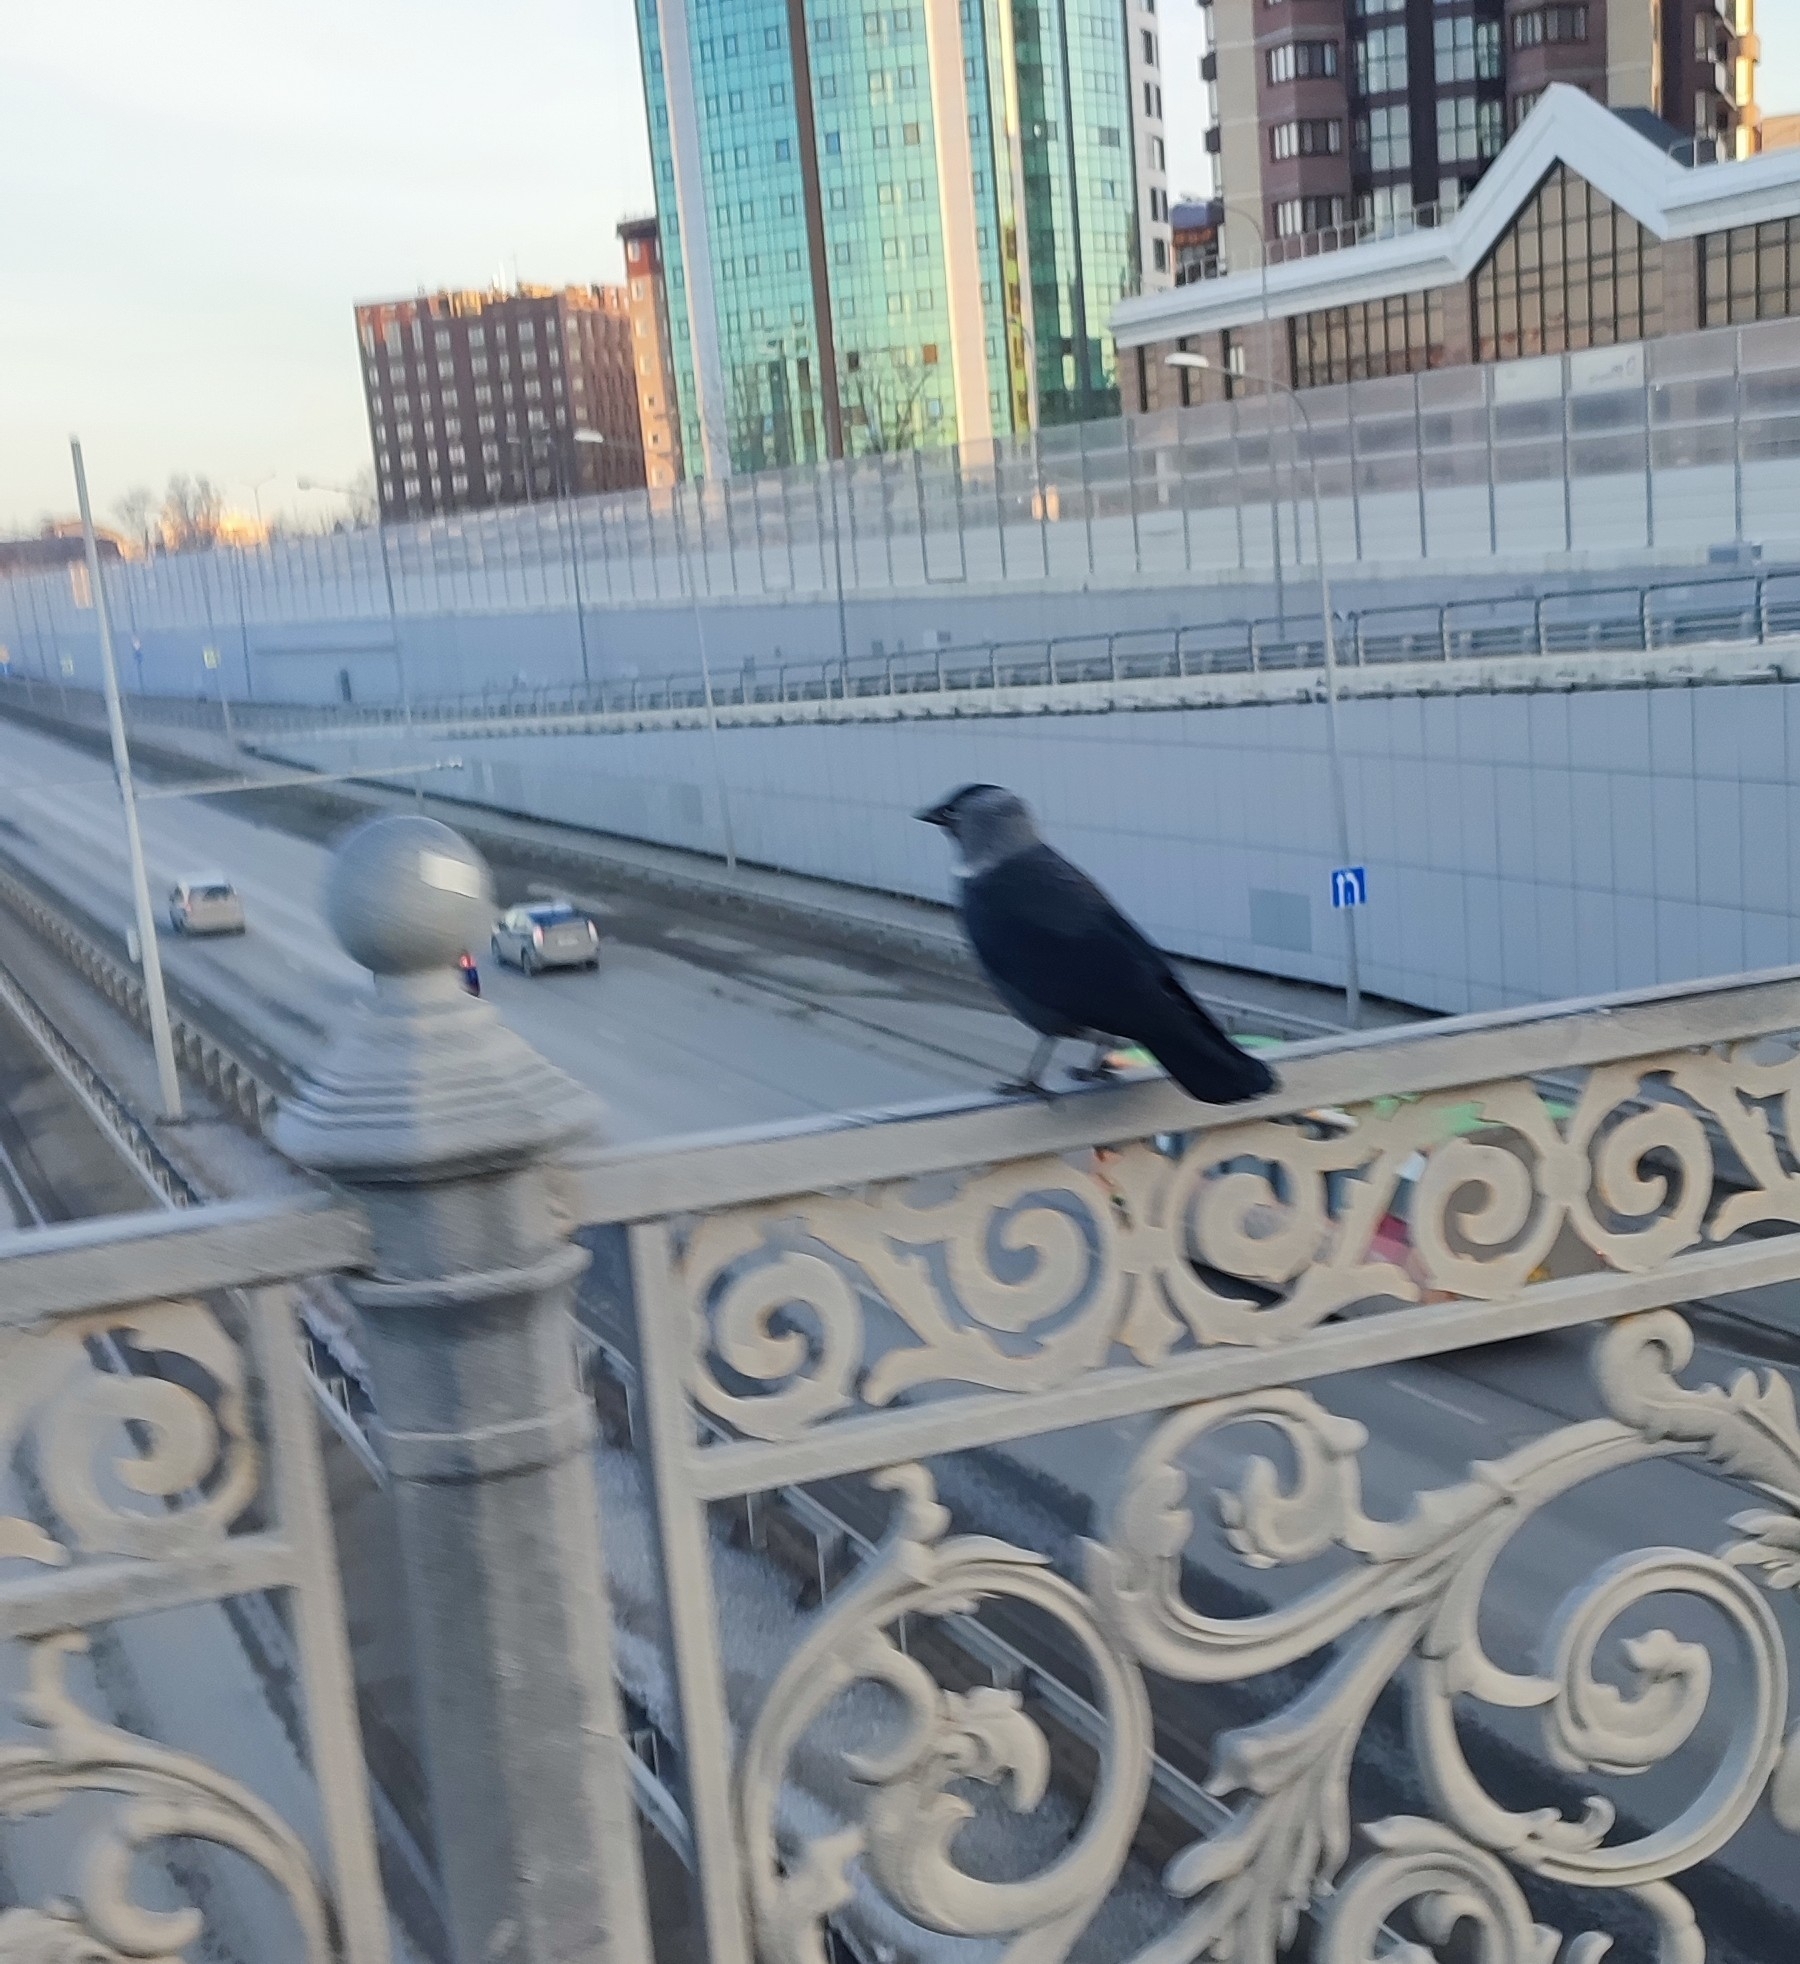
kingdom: Animalia
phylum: Chordata
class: Aves
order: Passeriformes
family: Corvidae
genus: Coloeus
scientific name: Coloeus monedula
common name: Western jackdaw
